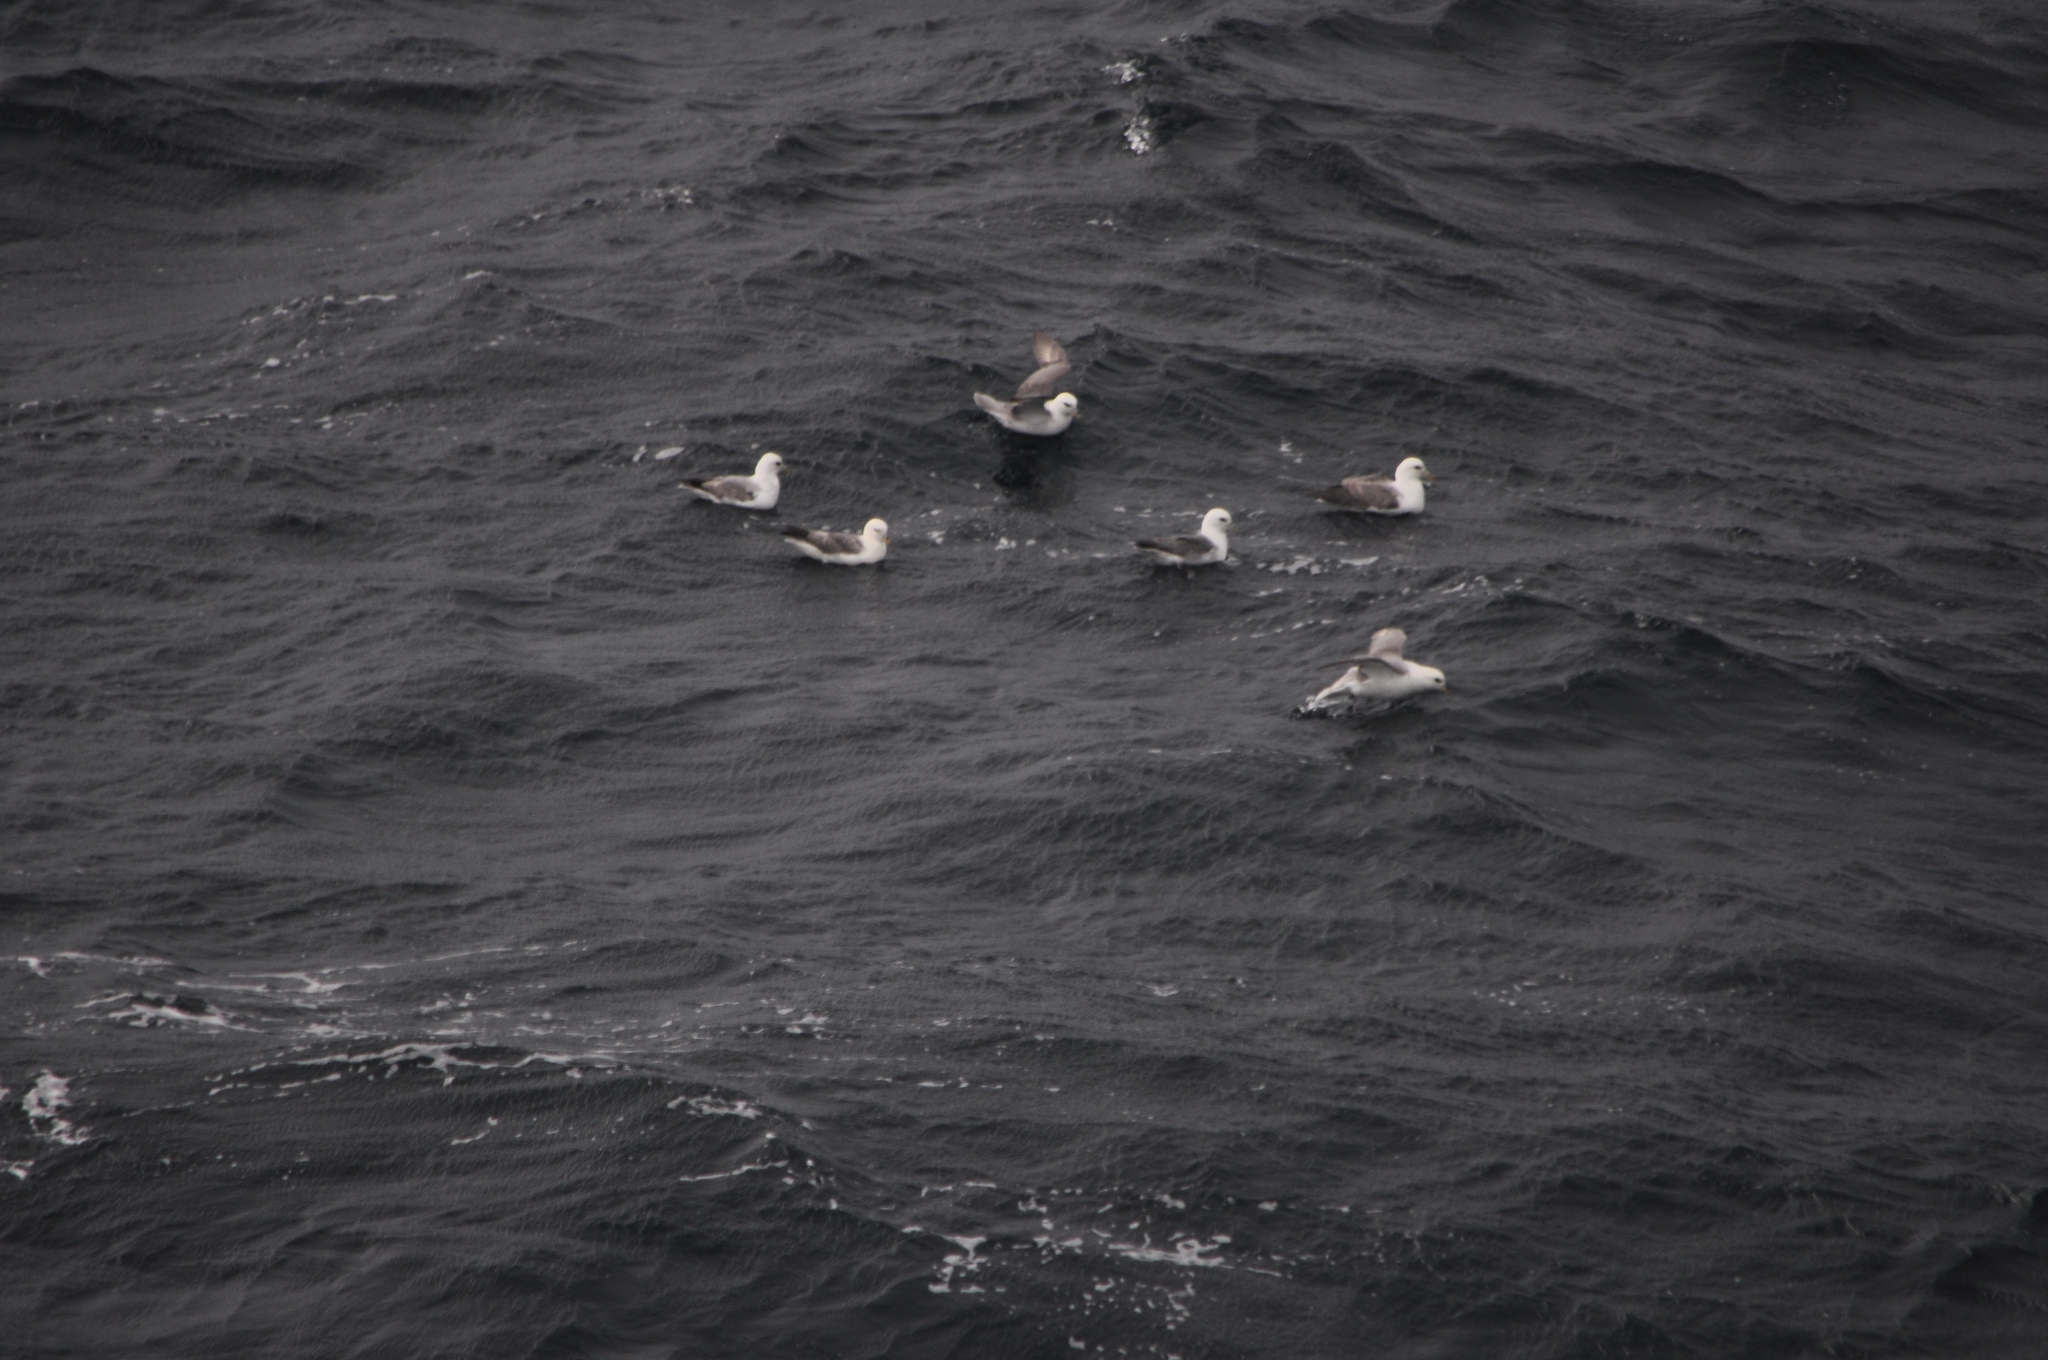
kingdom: Animalia
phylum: Chordata
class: Aves
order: Procellariiformes
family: Procellariidae
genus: Fulmarus
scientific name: Fulmarus glacialis
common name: Northern fulmar
